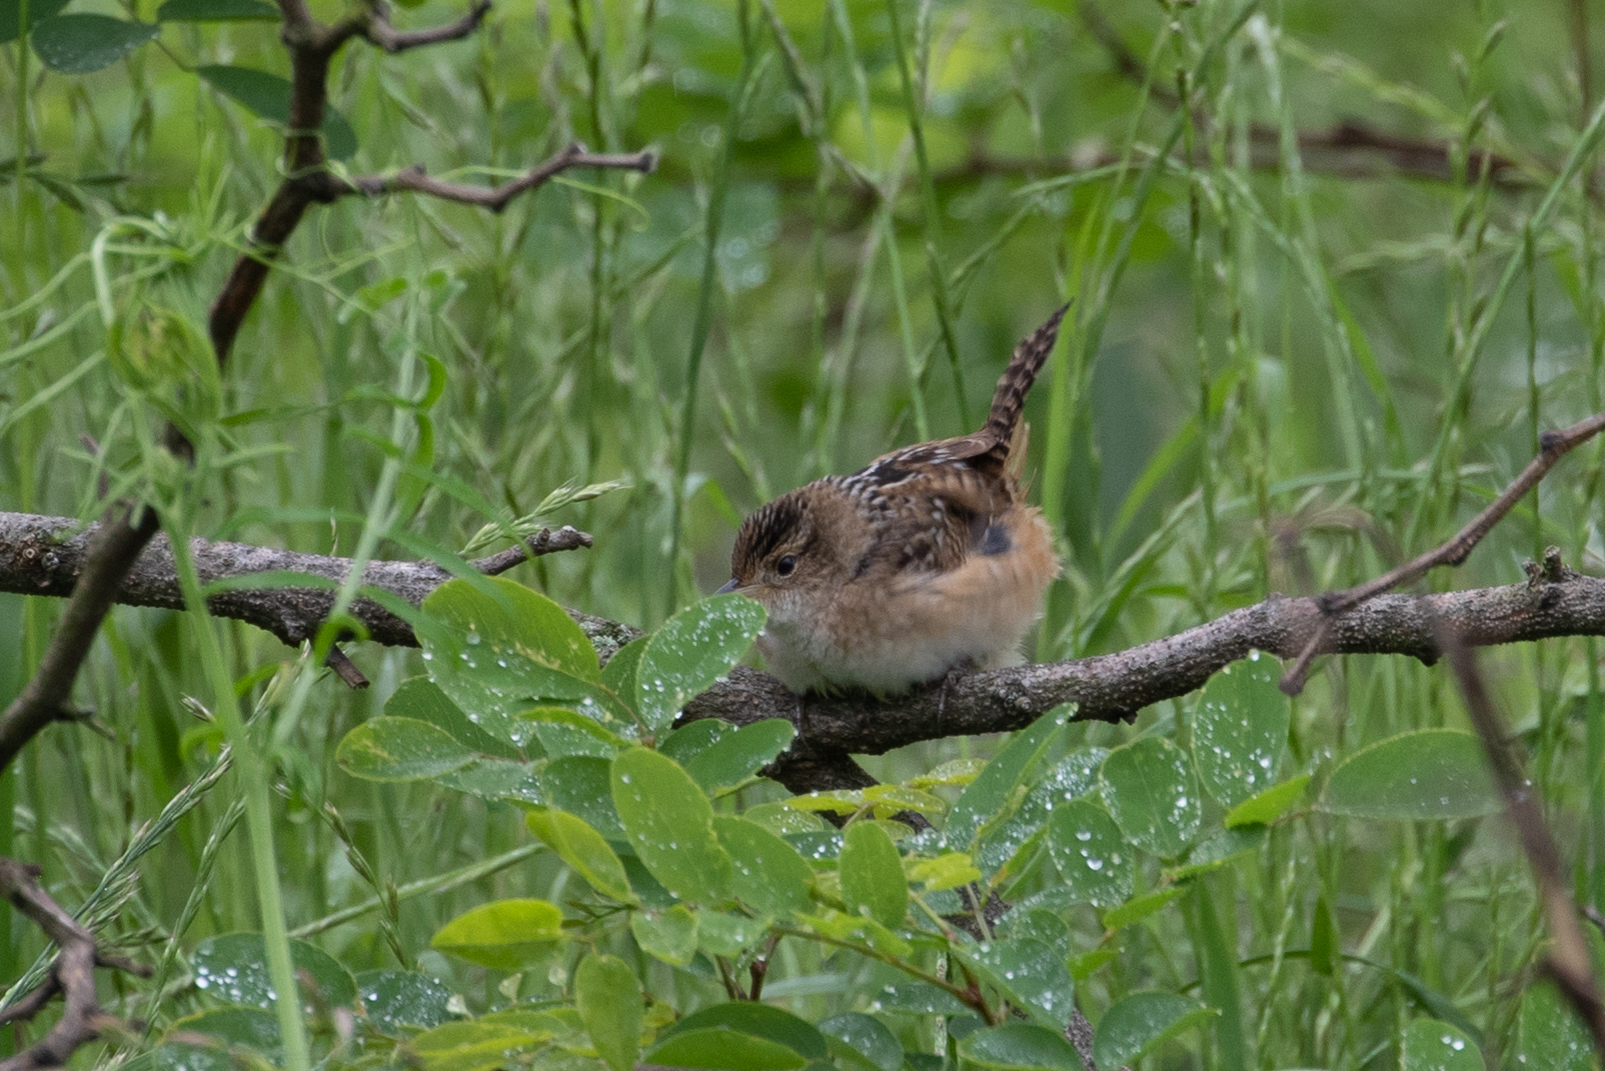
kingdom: Animalia
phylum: Chordata
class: Aves
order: Passeriformes
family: Troglodytidae
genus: Cistothorus
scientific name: Cistothorus platensis
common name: Sedge wren
